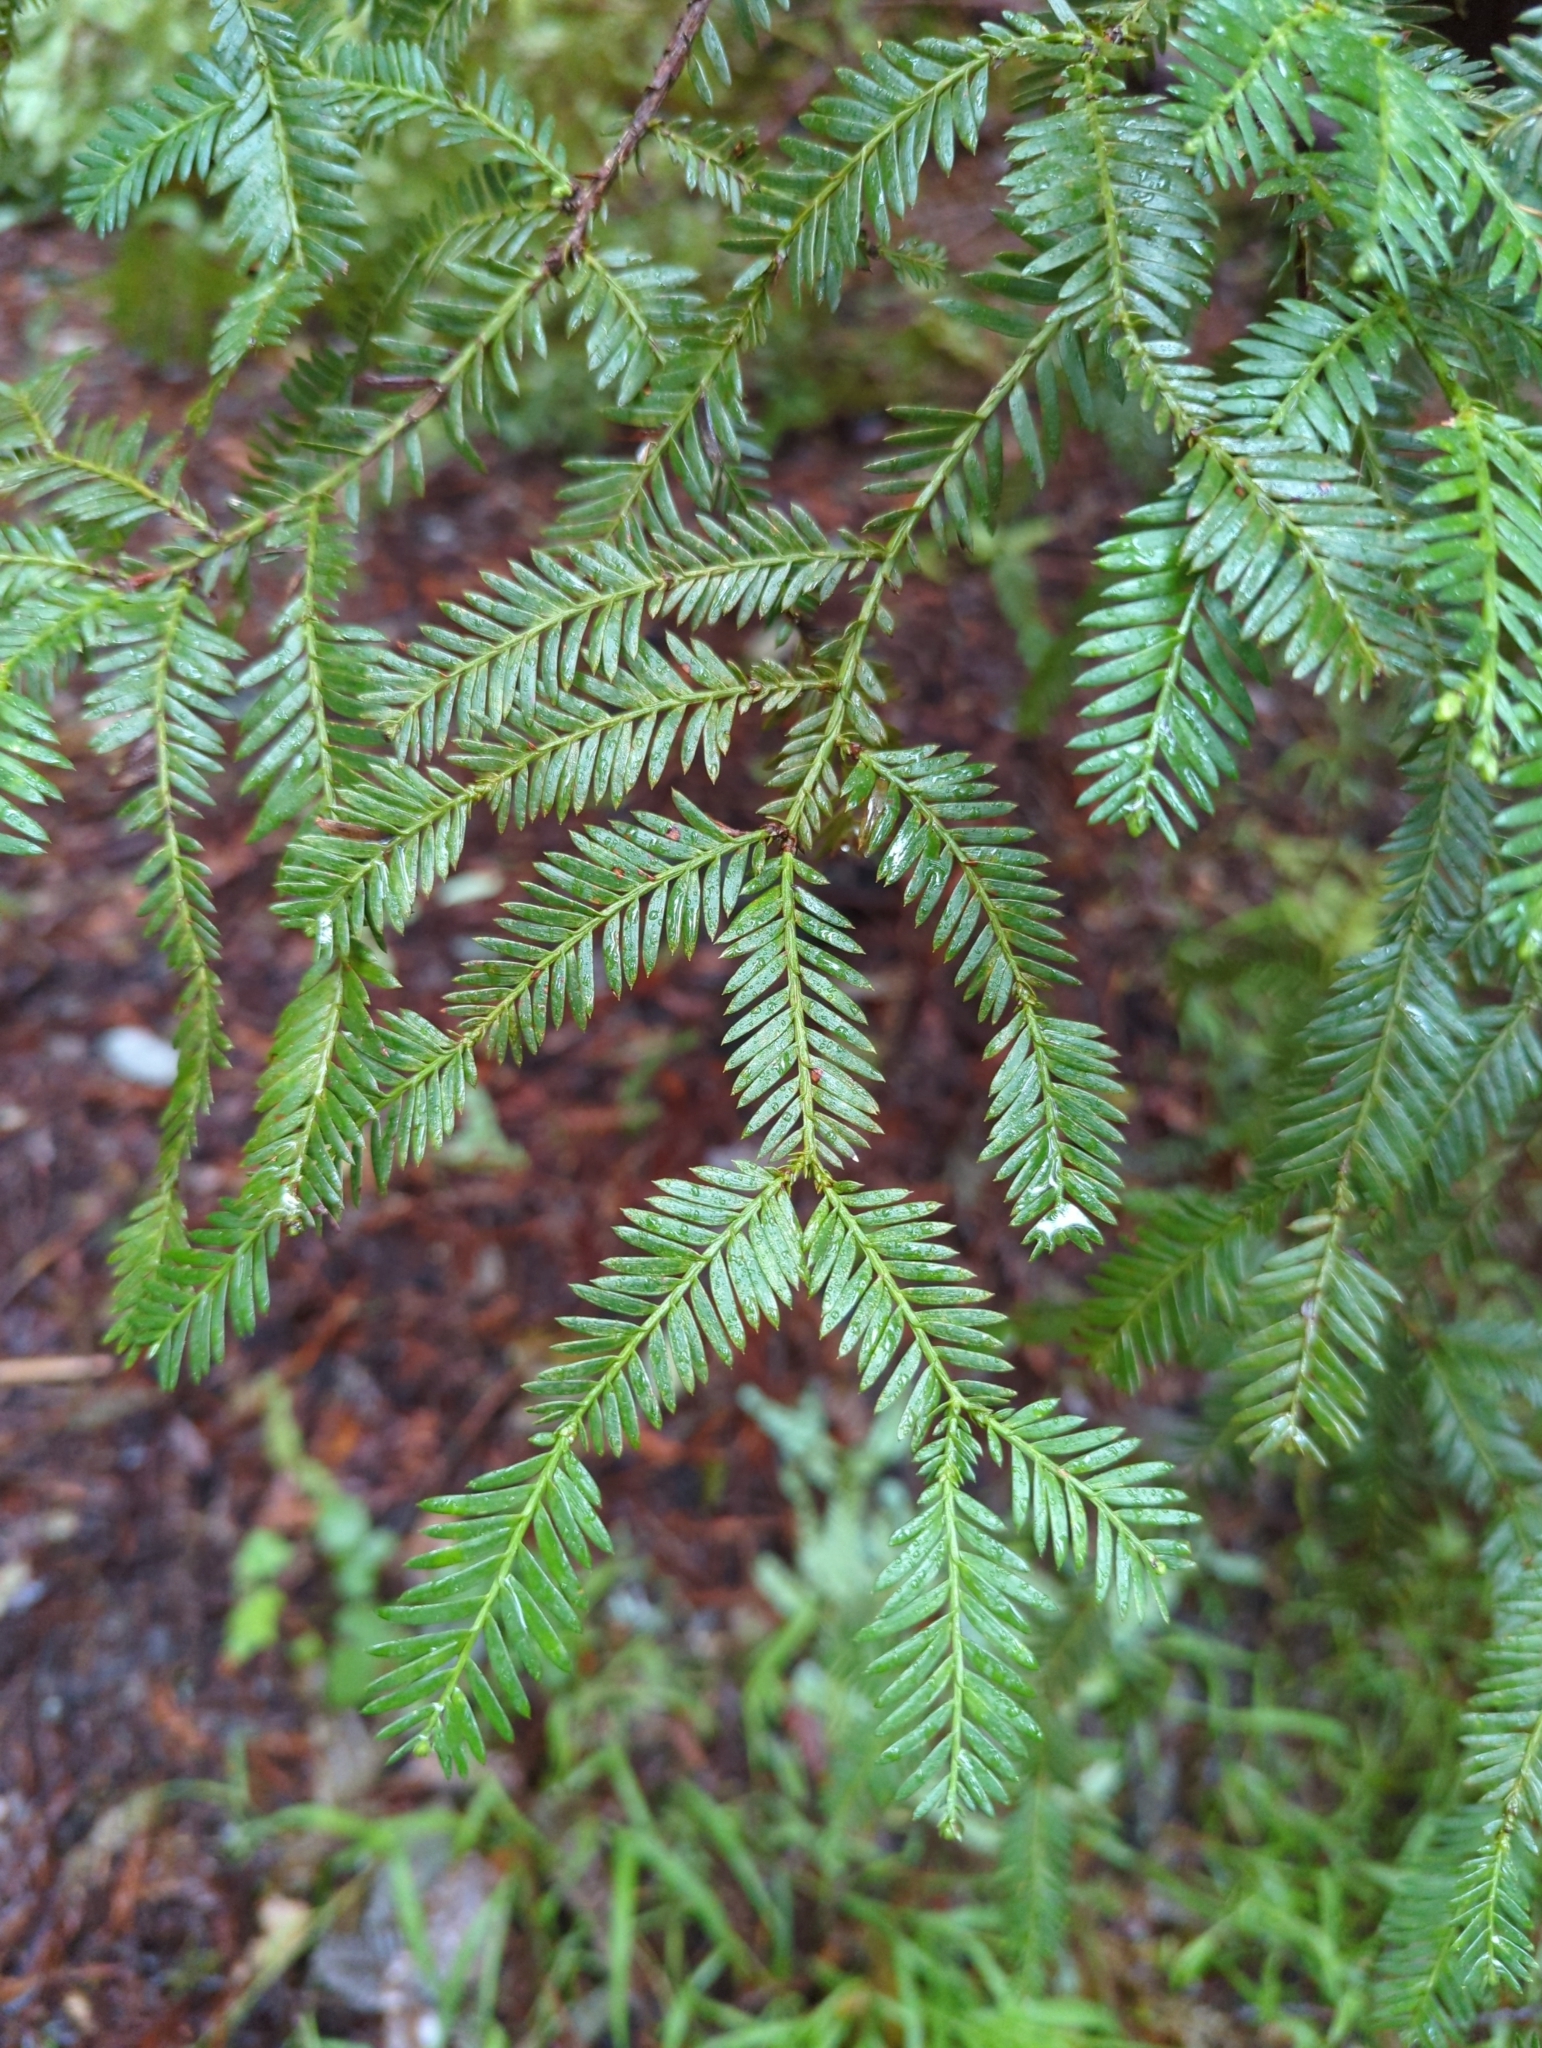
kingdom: Plantae
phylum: Tracheophyta
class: Pinopsida
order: Pinales
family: Cupressaceae
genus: Sequoia
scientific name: Sequoia sempervirens
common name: Coast redwood
